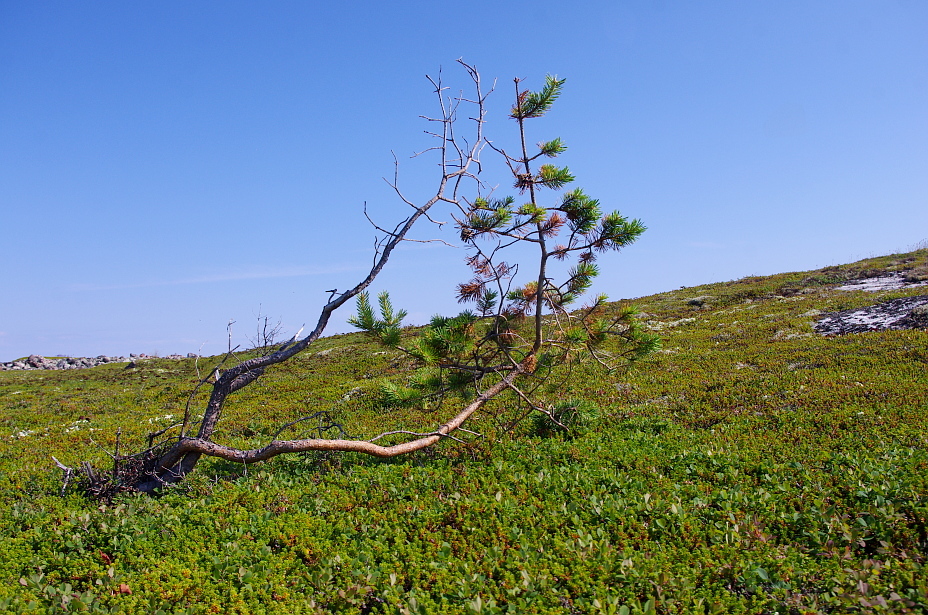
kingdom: Plantae
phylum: Tracheophyta
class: Pinopsida
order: Pinales
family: Pinaceae
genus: Pinus
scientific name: Pinus sylvestris
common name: Scots pine
